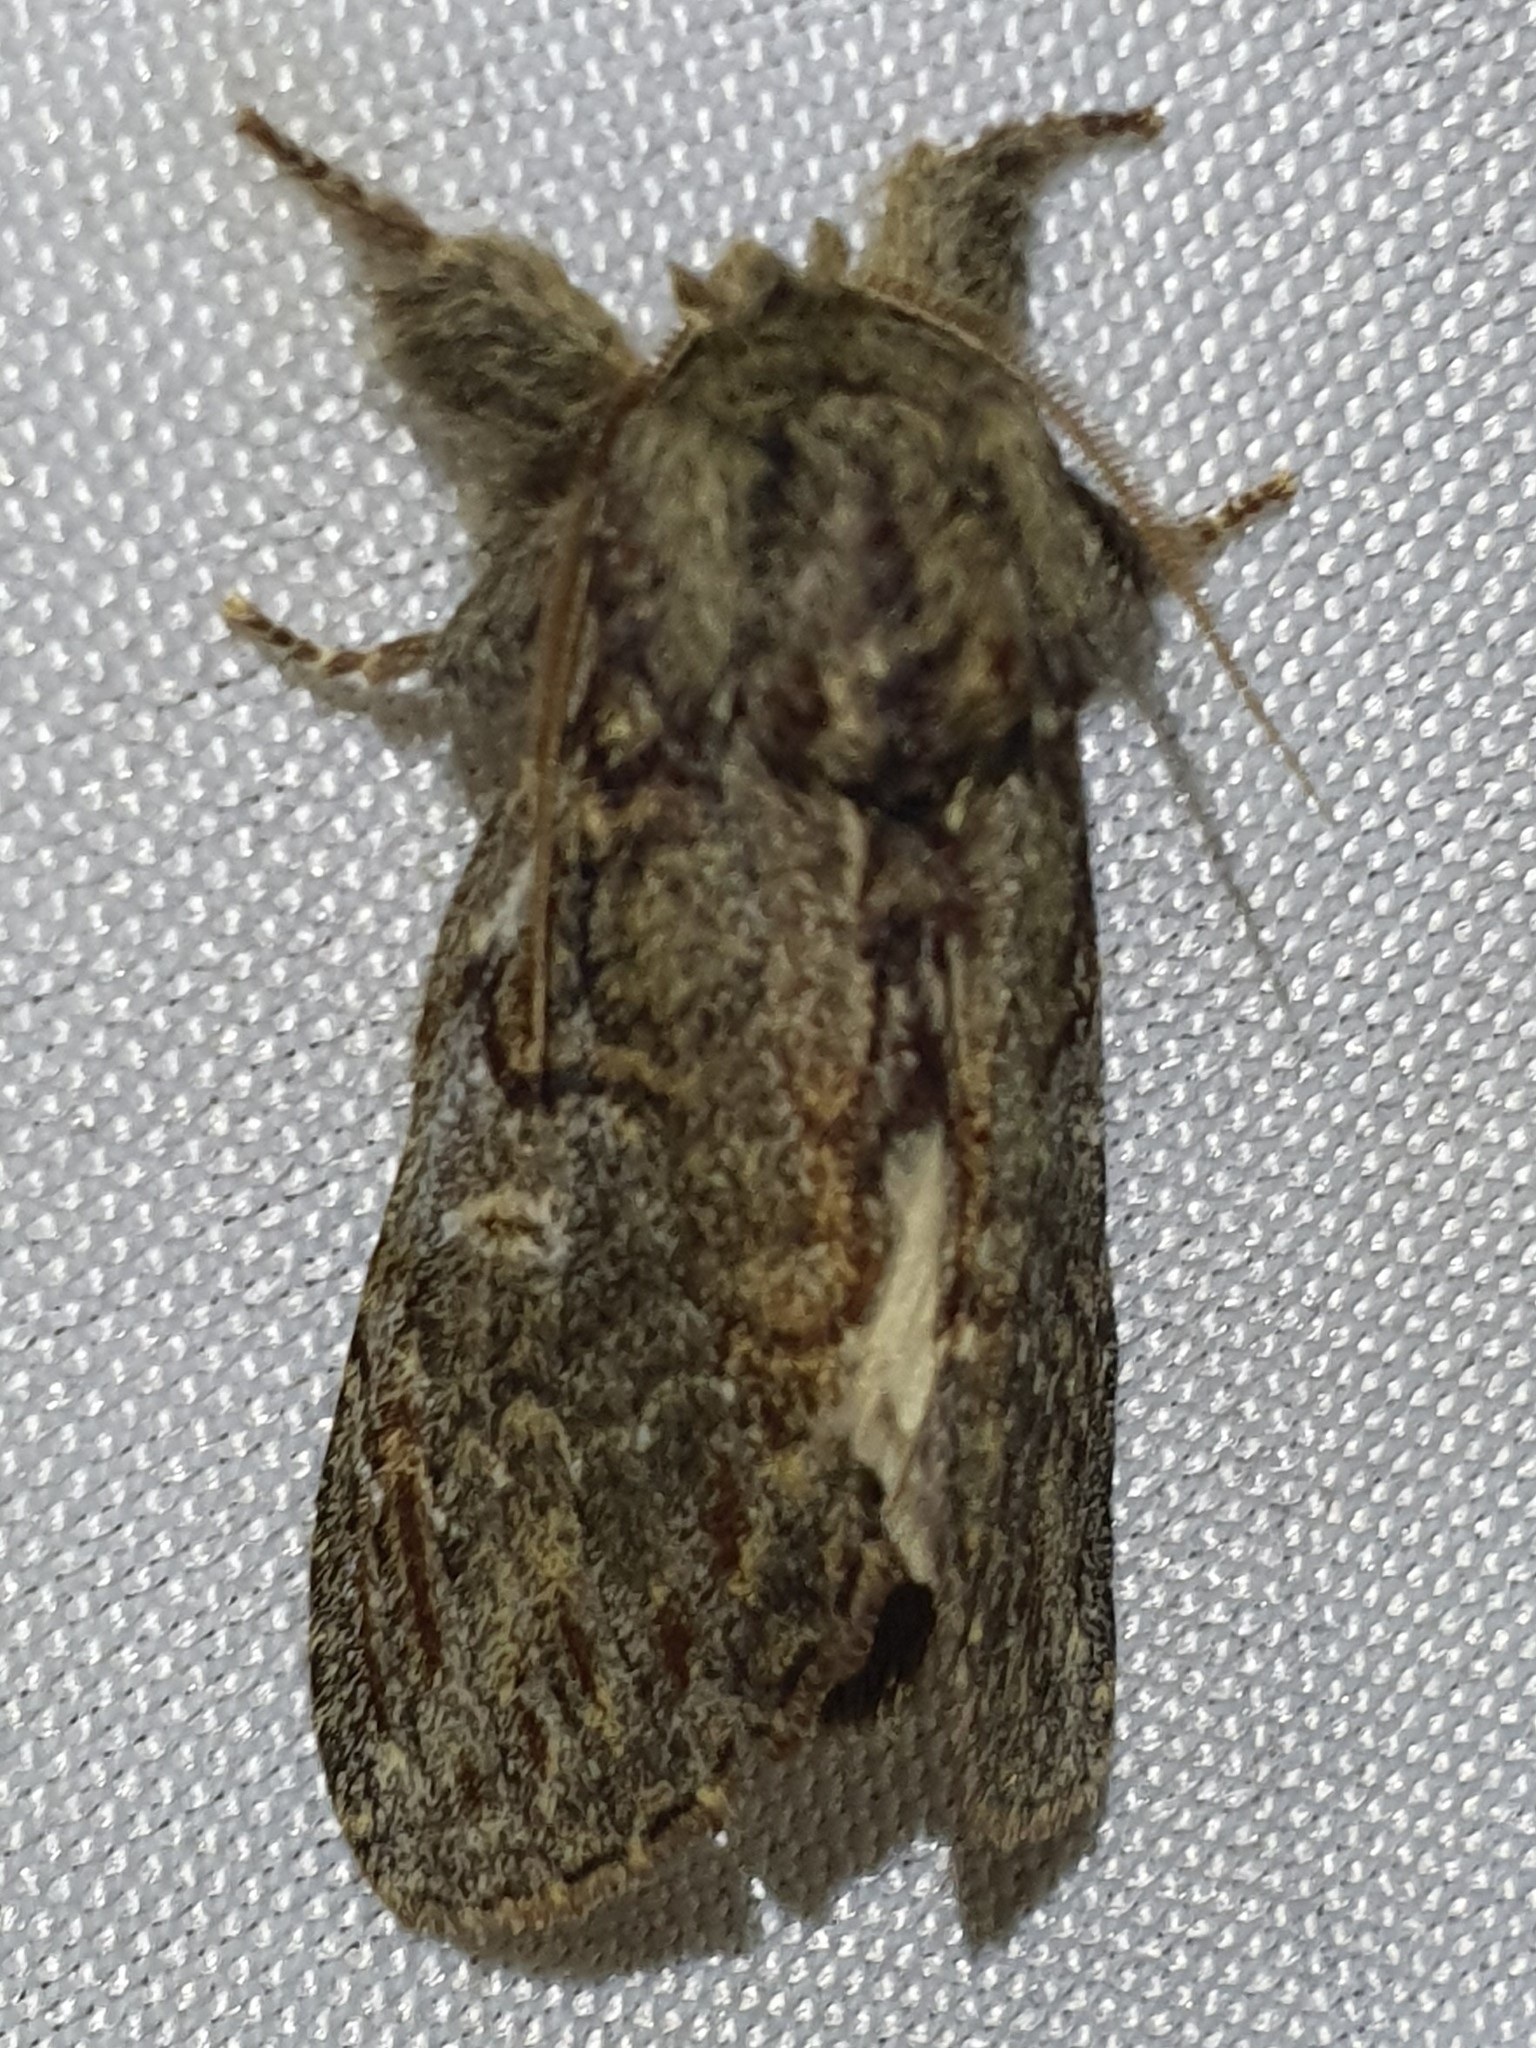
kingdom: Animalia
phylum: Arthropoda
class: Insecta
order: Lepidoptera
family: Notodontidae
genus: Peridea
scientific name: Peridea anceps
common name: Great prominent
